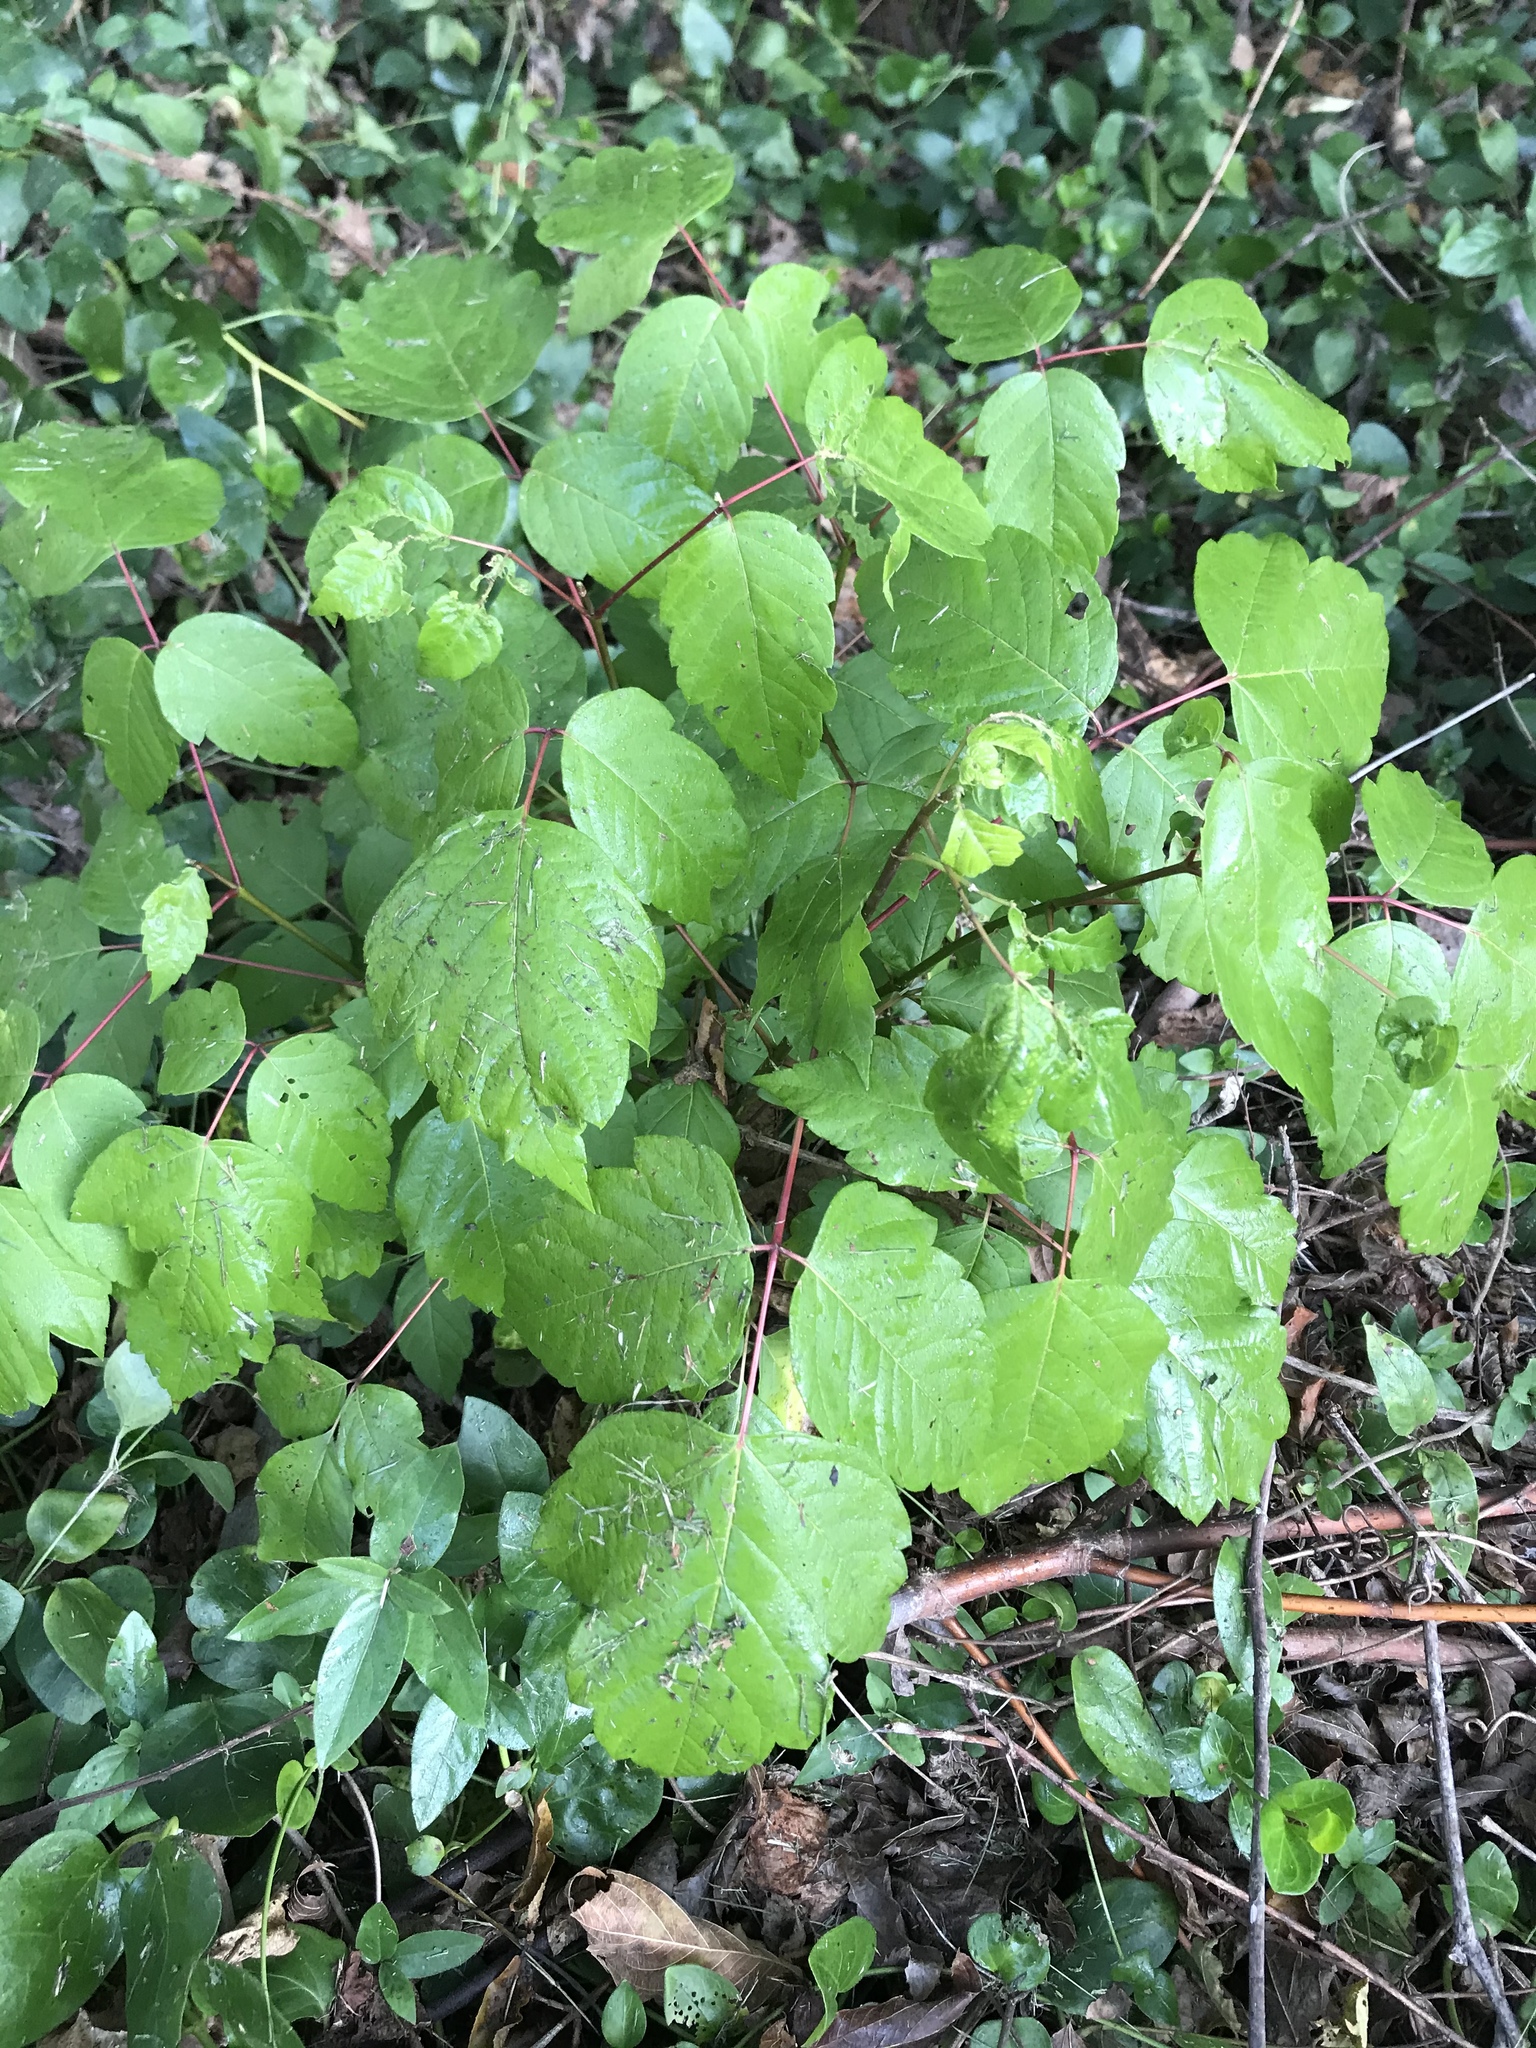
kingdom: Plantae
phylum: Tracheophyta
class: Magnoliopsida
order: Sapindales
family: Sapindaceae
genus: Acer
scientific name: Acer negundo
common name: Ashleaf maple
